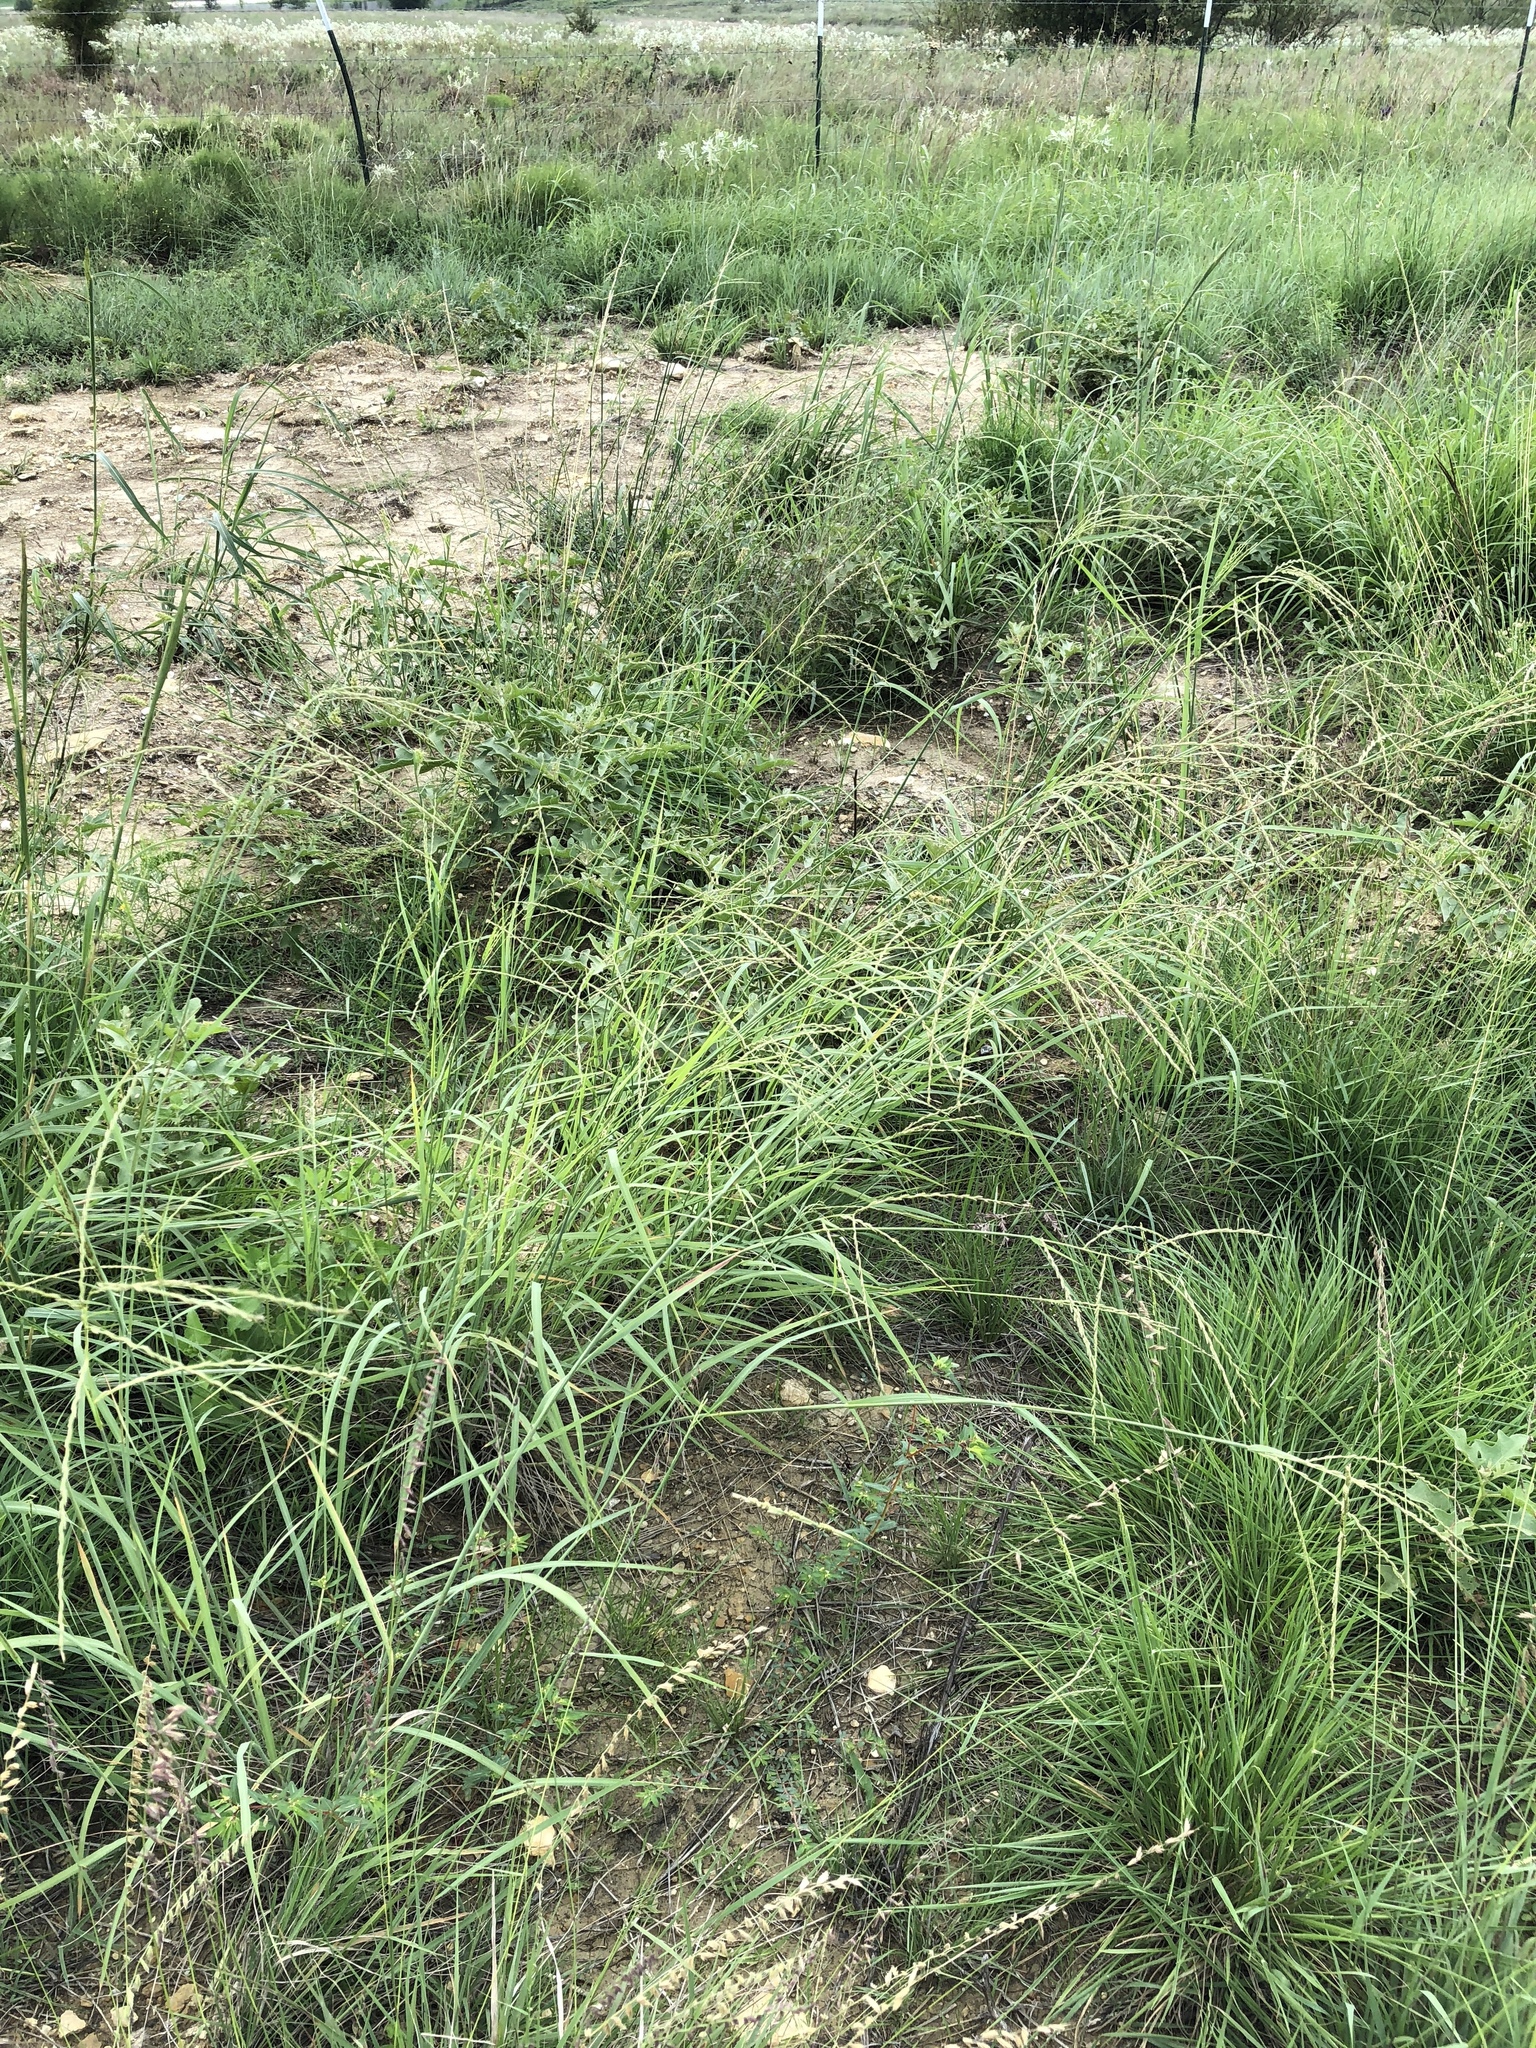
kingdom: Plantae
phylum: Tracheophyta
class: Liliopsida
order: Poales
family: Poaceae
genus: Disakisperma
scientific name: Disakisperma dubium
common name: Green sprangletop
